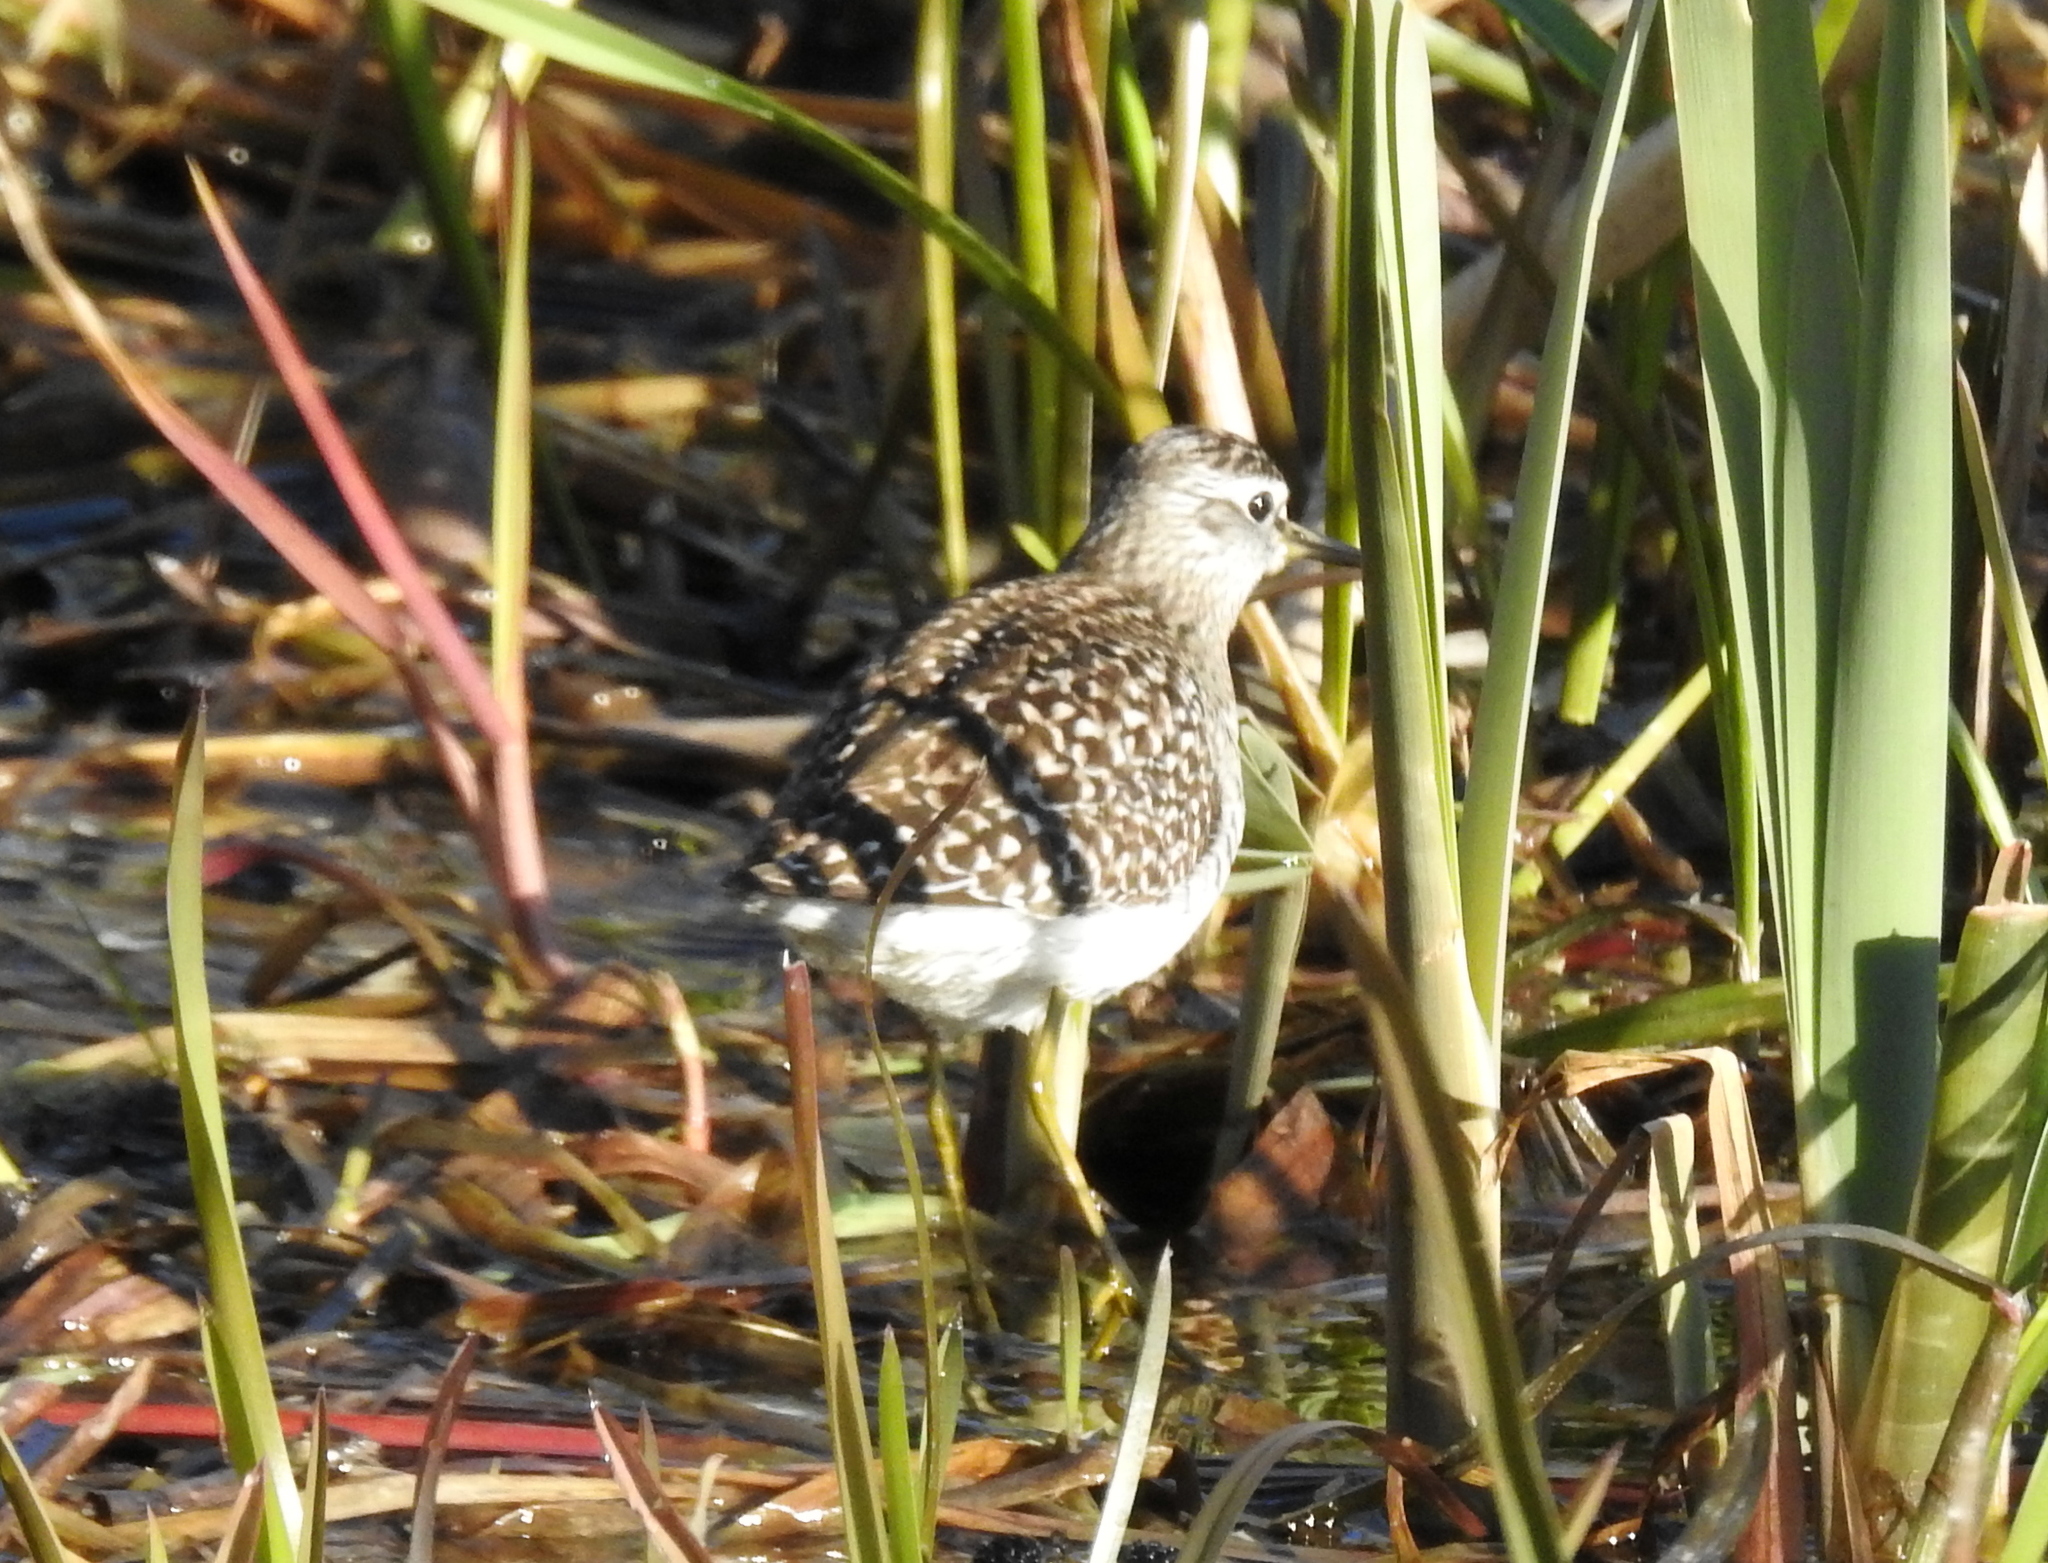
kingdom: Animalia
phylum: Chordata
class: Aves
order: Charadriiformes
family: Scolopacidae
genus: Tringa
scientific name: Tringa glareola
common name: Wood sandpiper
